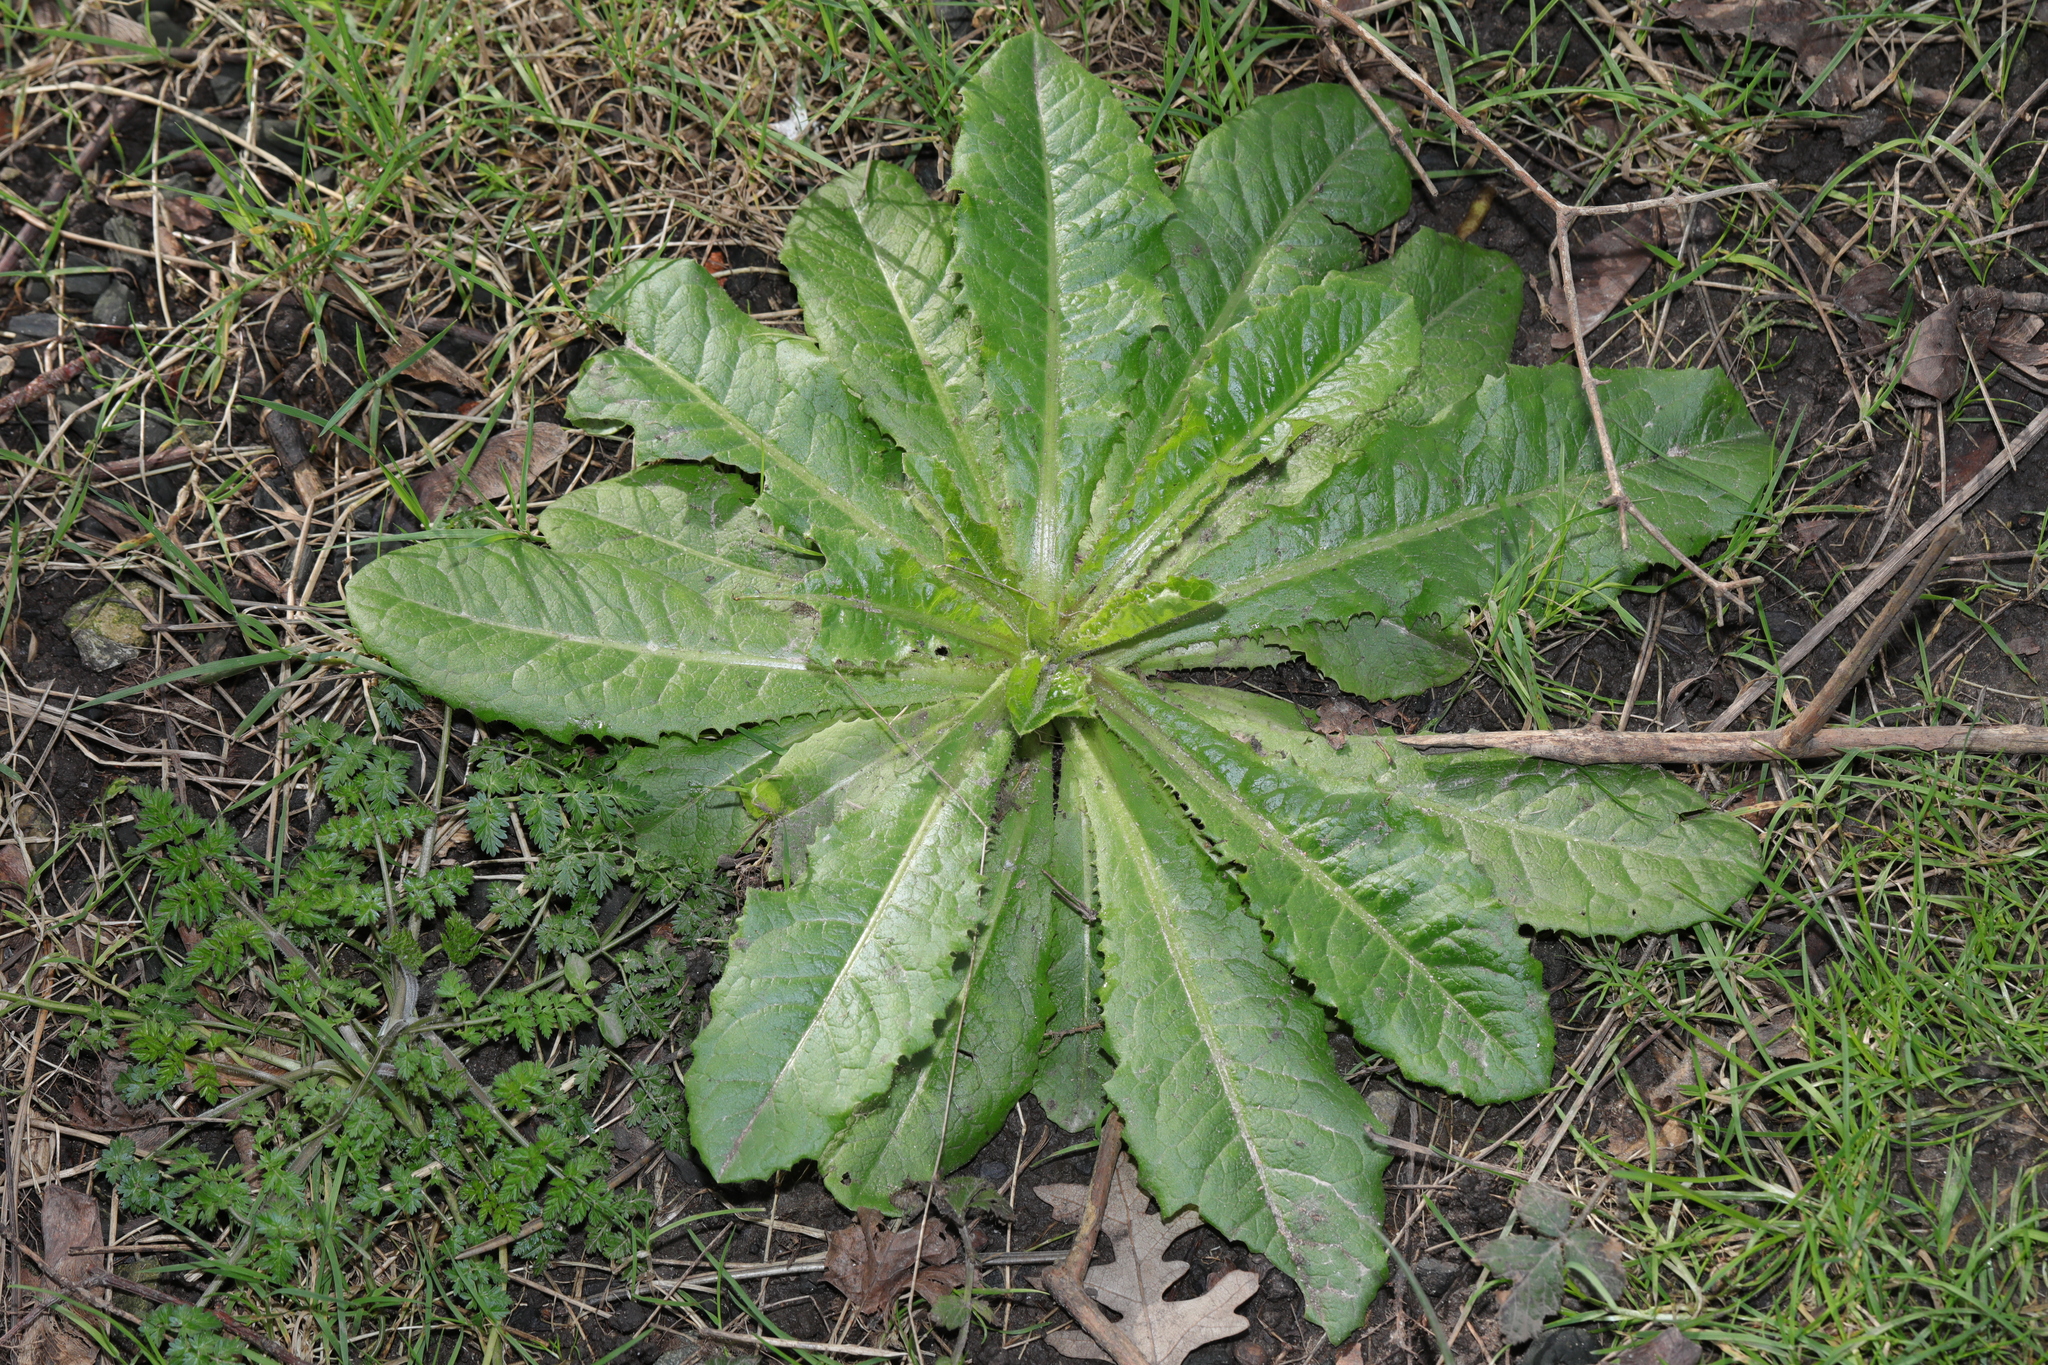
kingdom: Plantae
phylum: Tracheophyta
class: Magnoliopsida
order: Asterales
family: Asteraceae
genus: Lactuca
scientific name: Lactuca virosa
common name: Great lettuce
